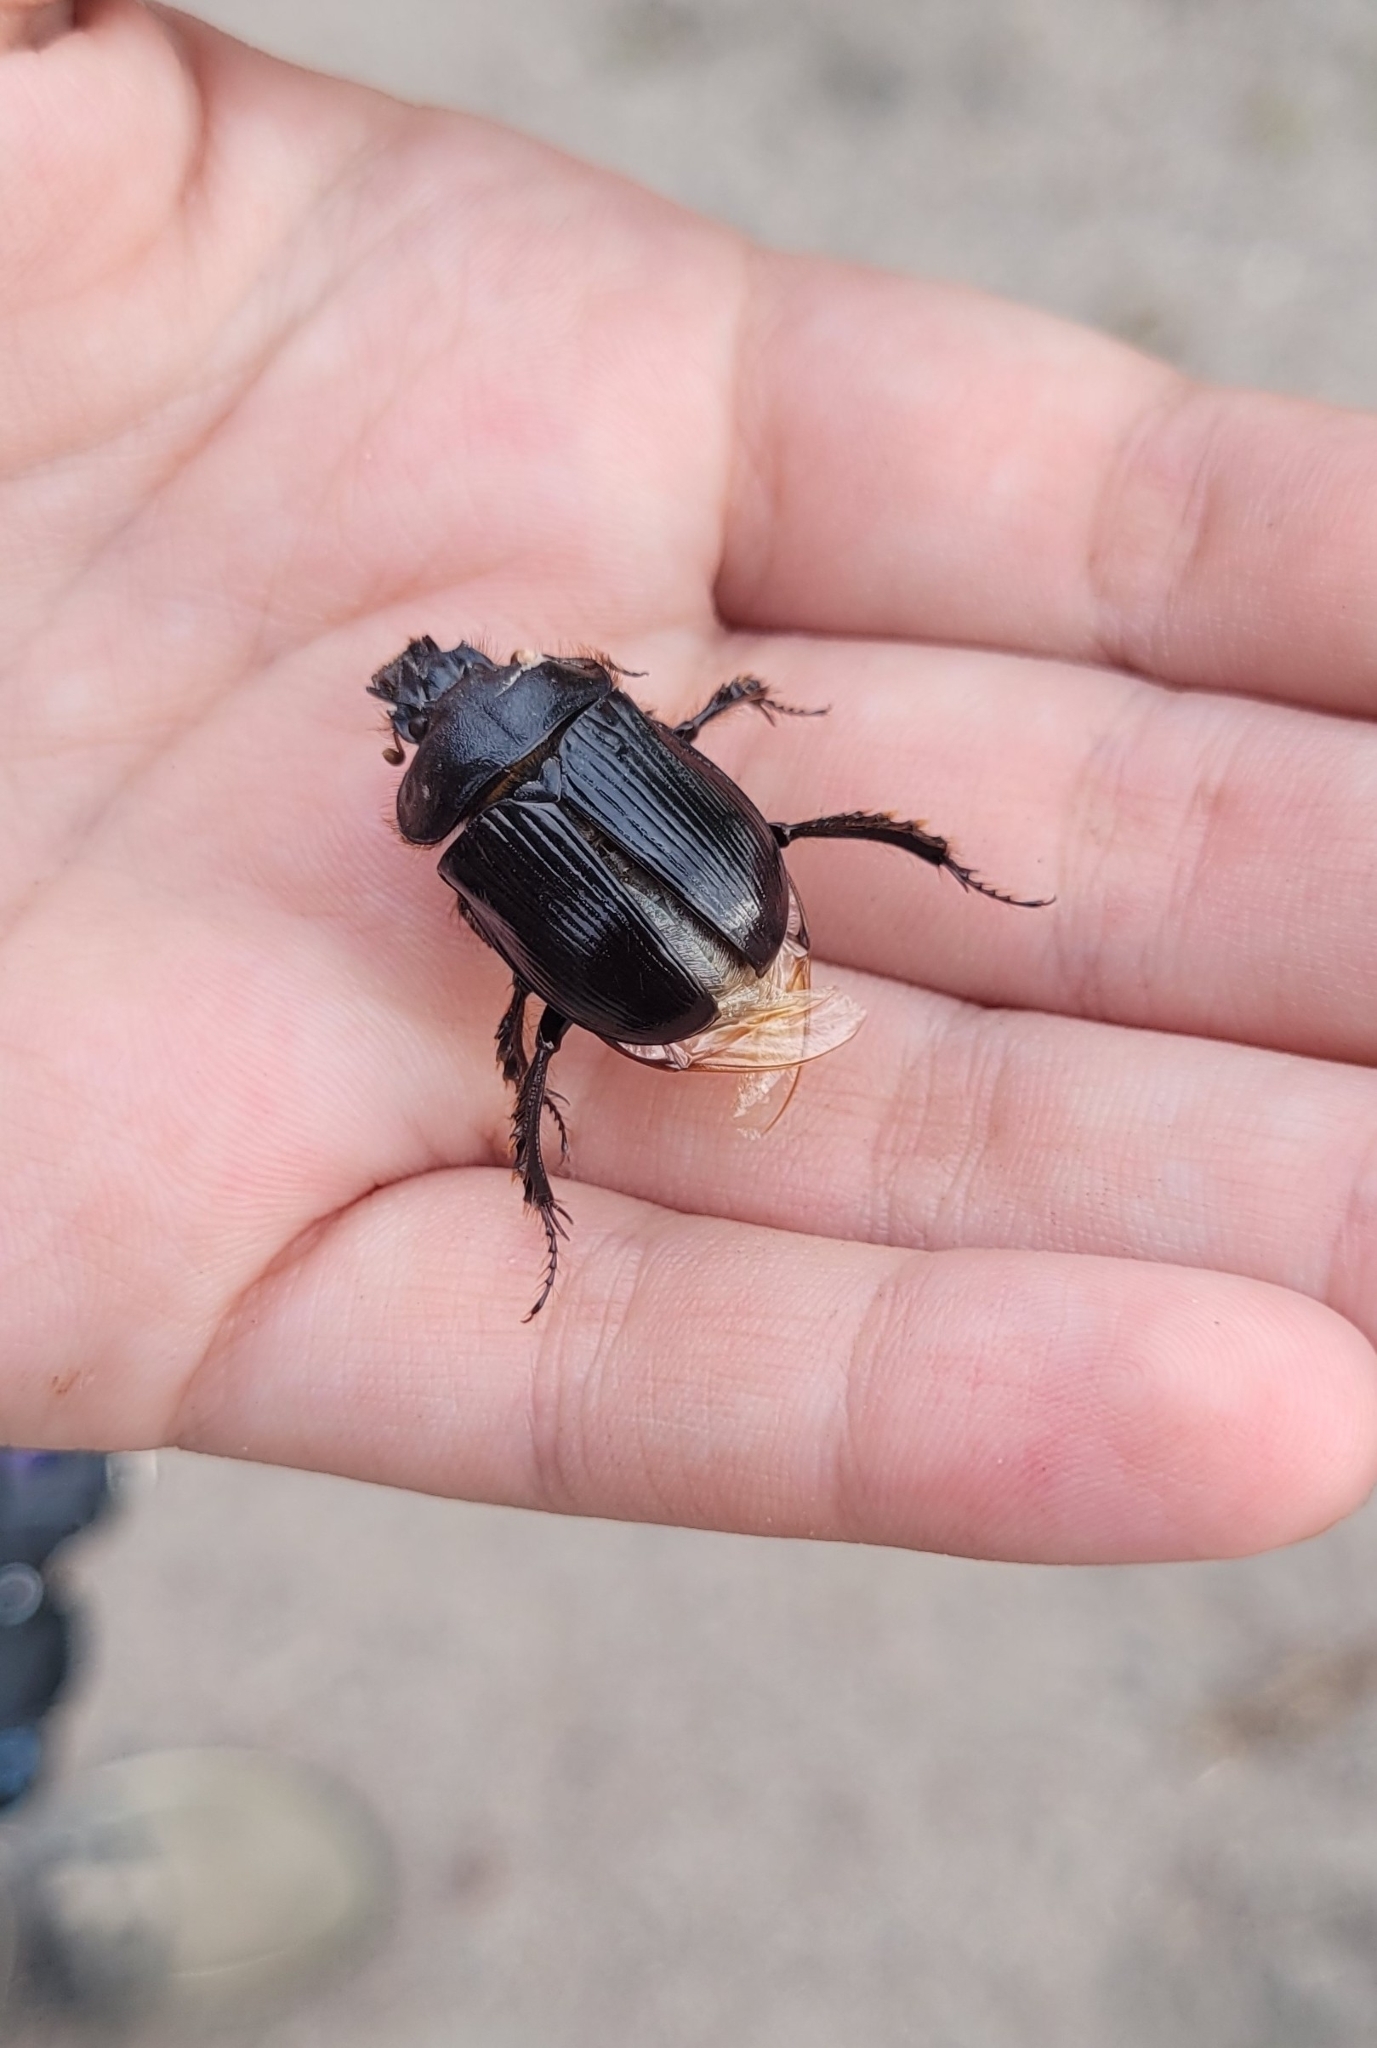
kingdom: Animalia
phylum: Arthropoda
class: Insecta
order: Coleoptera
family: Geotrupidae
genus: Ceratophyus
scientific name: Ceratophyus mesasiaticus
